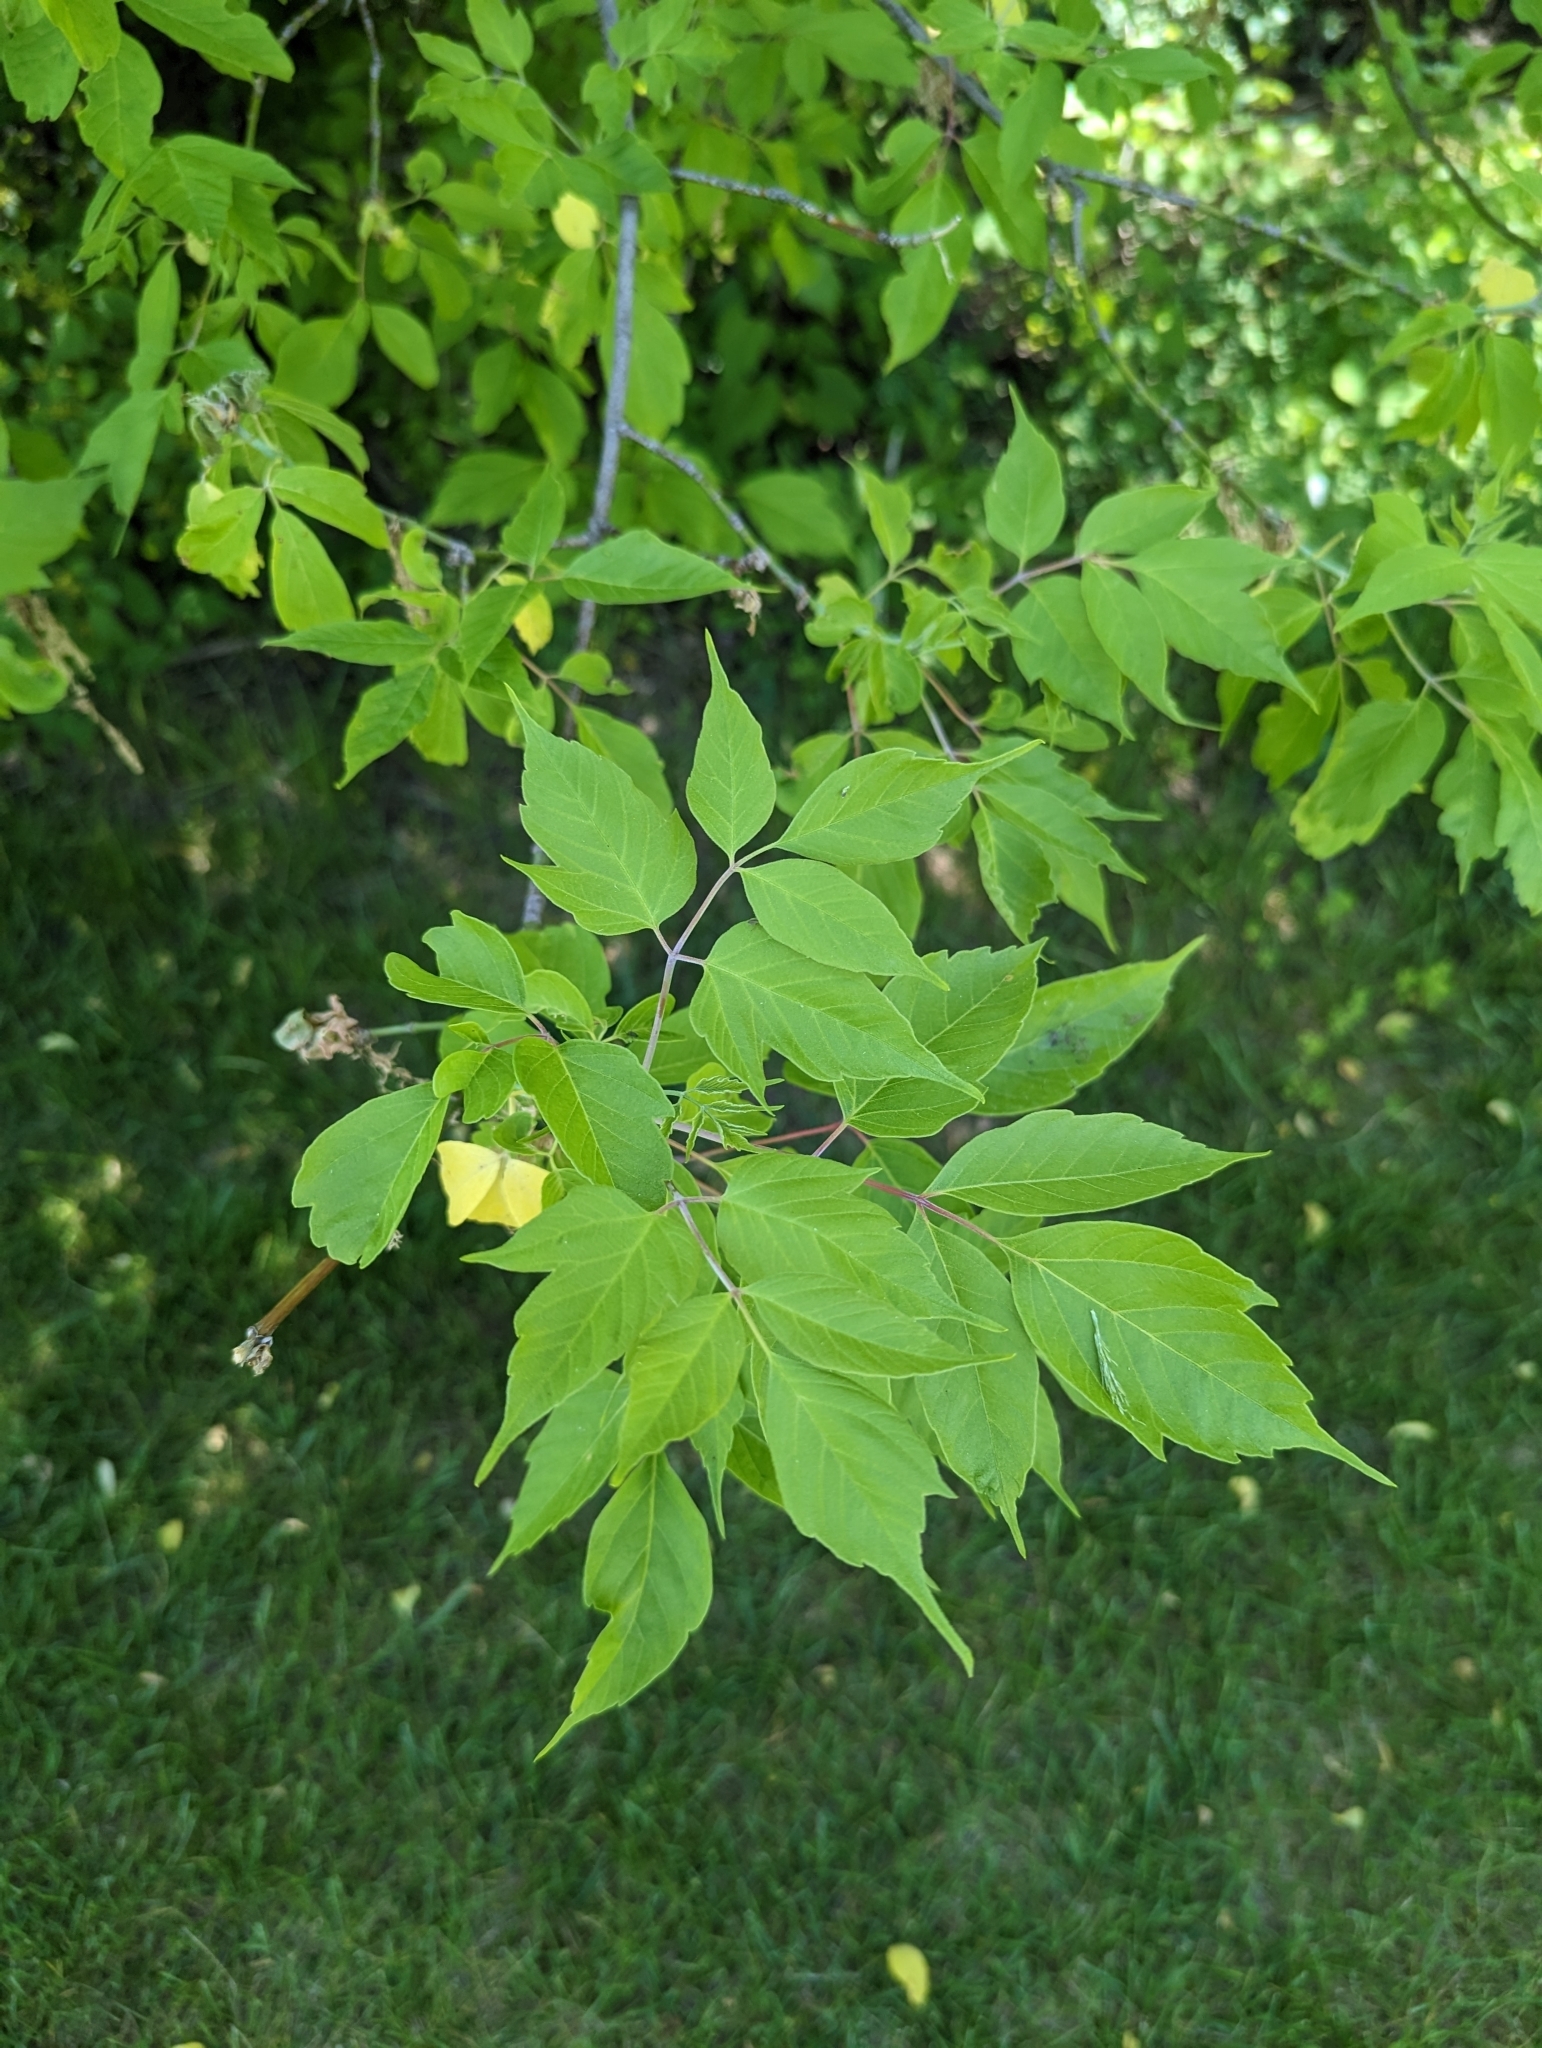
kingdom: Plantae
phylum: Tracheophyta
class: Magnoliopsida
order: Sapindales
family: Sapindaceae
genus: Acer
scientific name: Acer negundo
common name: Ashleaf maple
